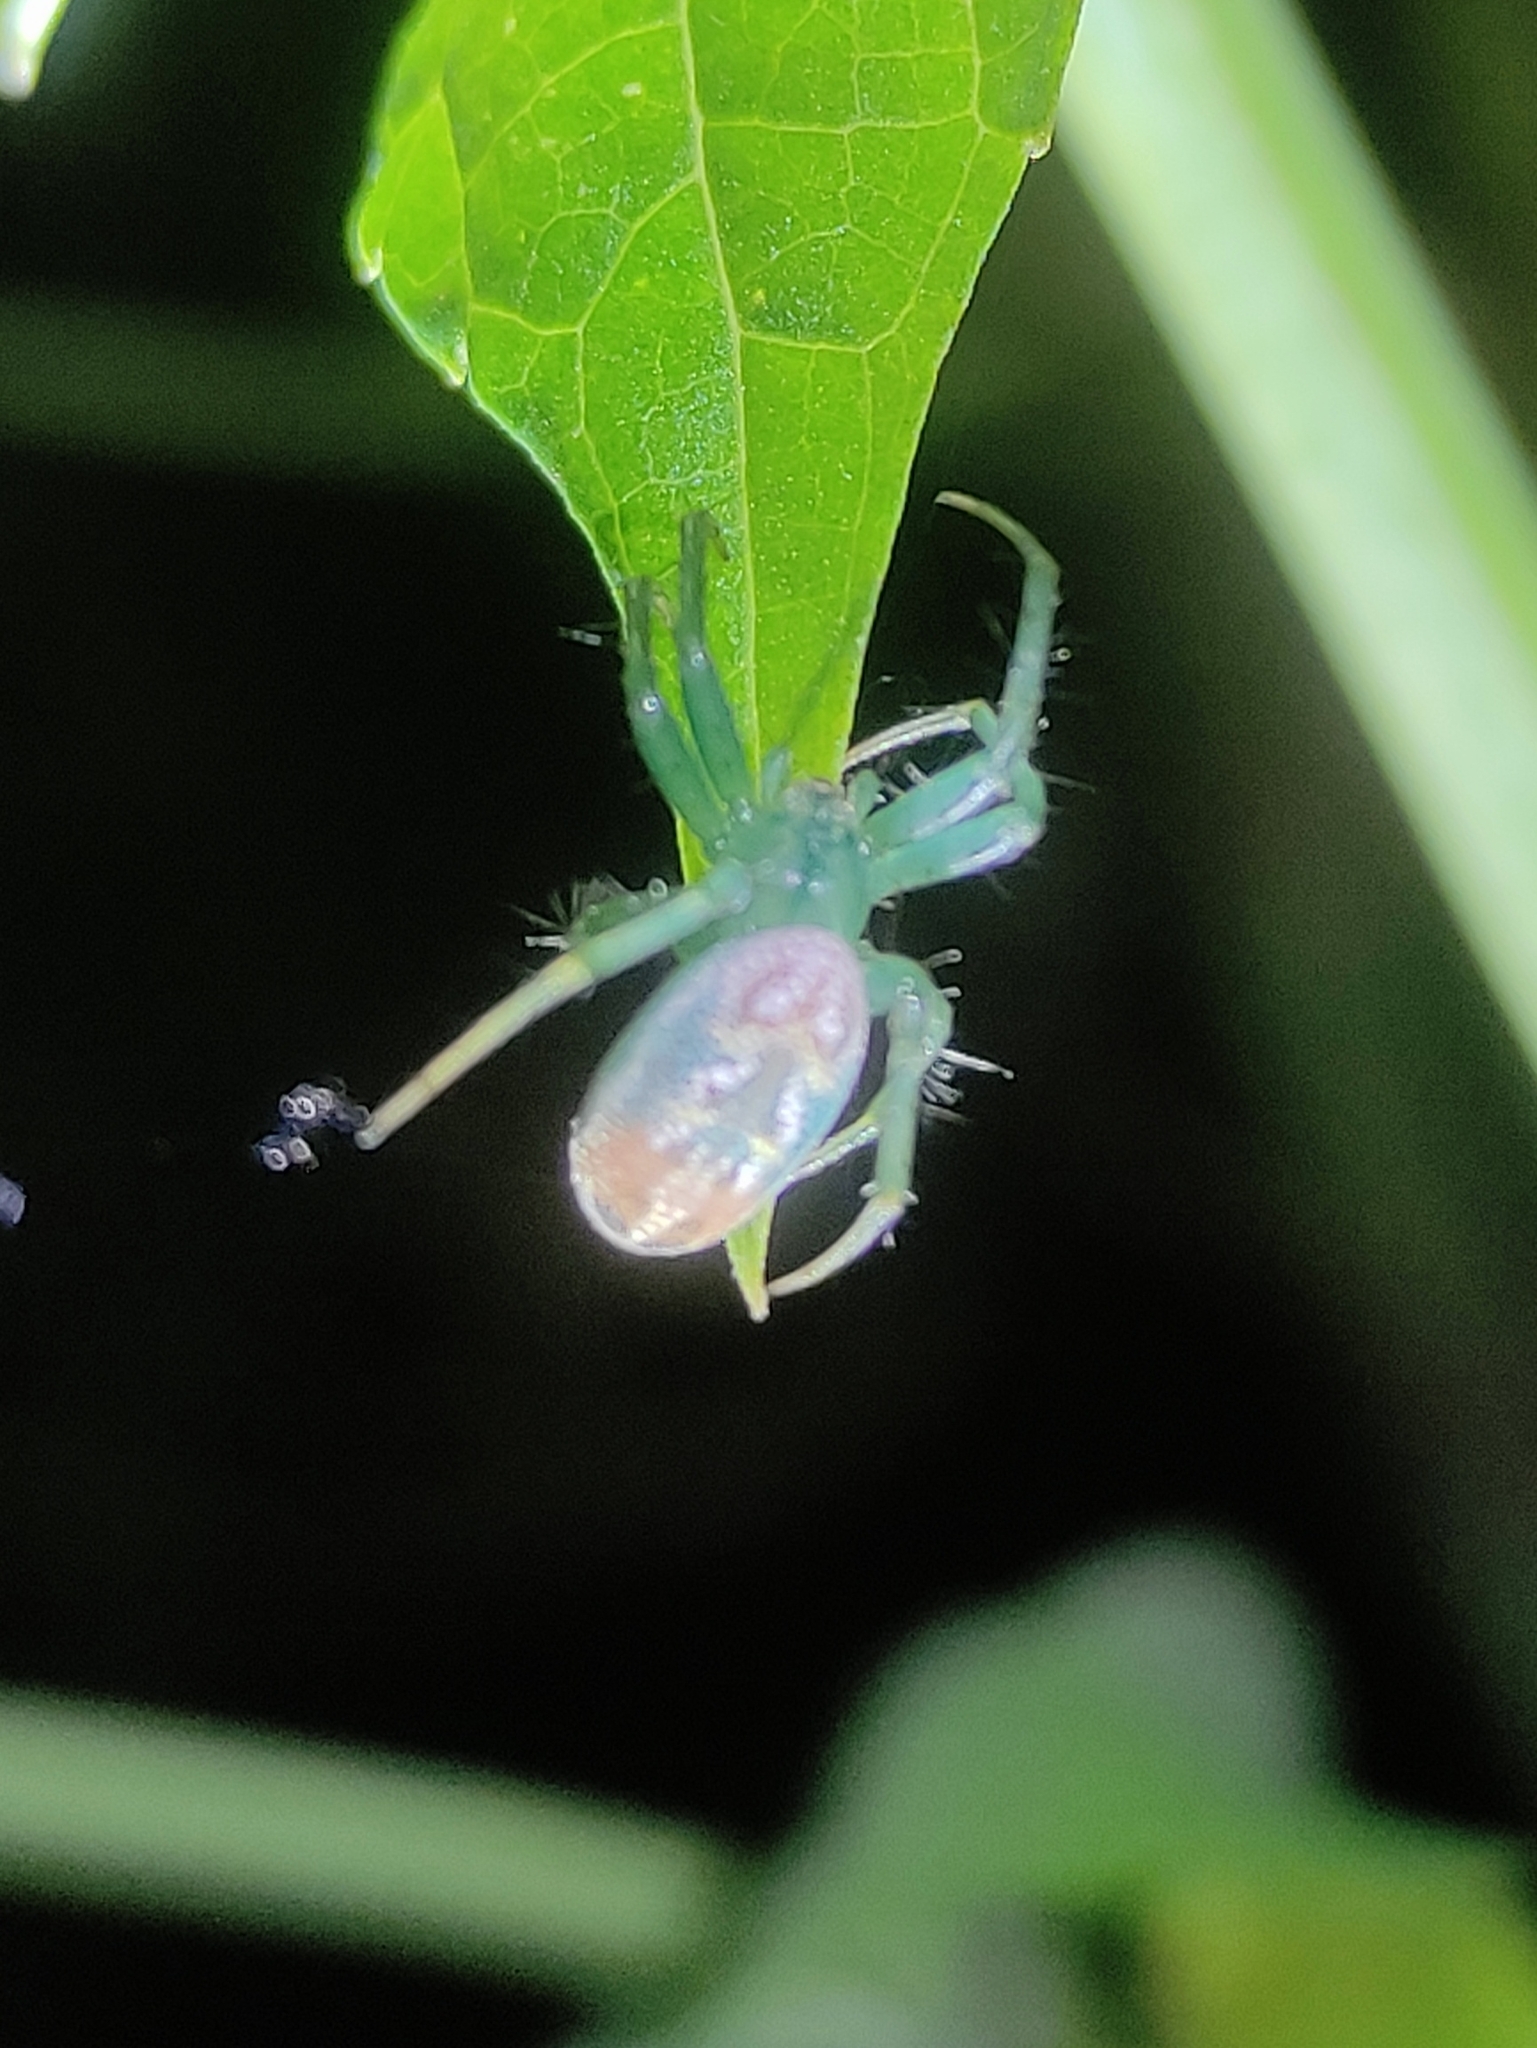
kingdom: Animalia
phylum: Arthropoda
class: Arachnida
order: Araneae
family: Araneidae
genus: Mangora
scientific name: Mangora strenua
